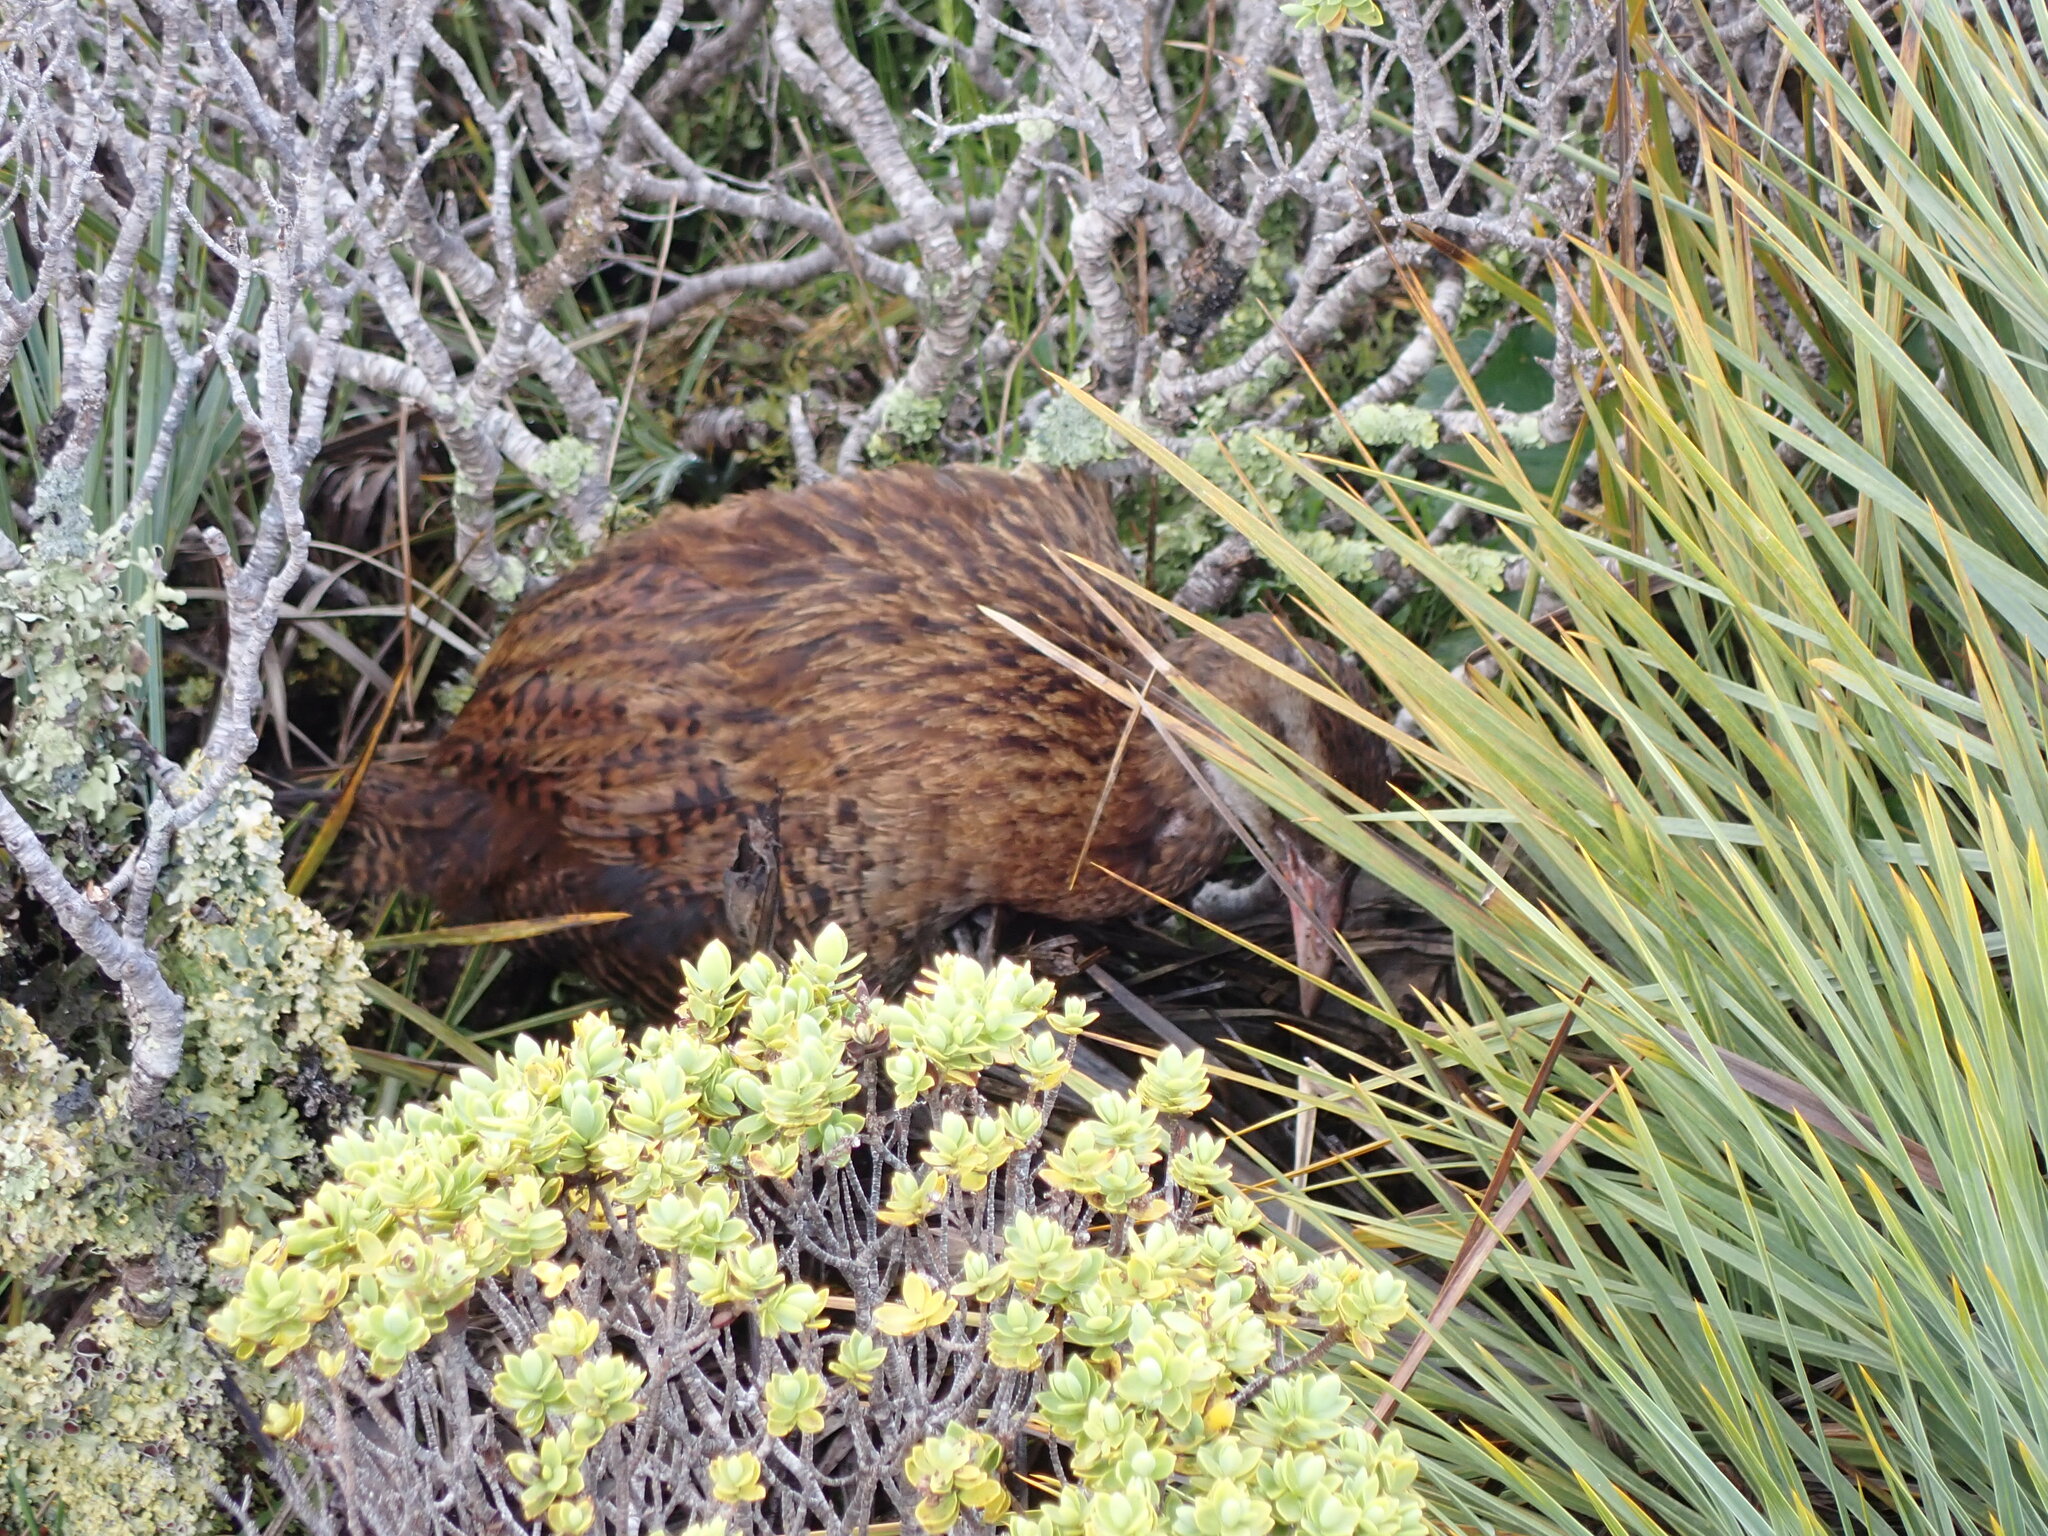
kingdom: Animalia
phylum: Chordata
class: Aves
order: Gruiformes
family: Rallidae
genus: Gallirallus
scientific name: Gallirallus australis
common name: Weka
